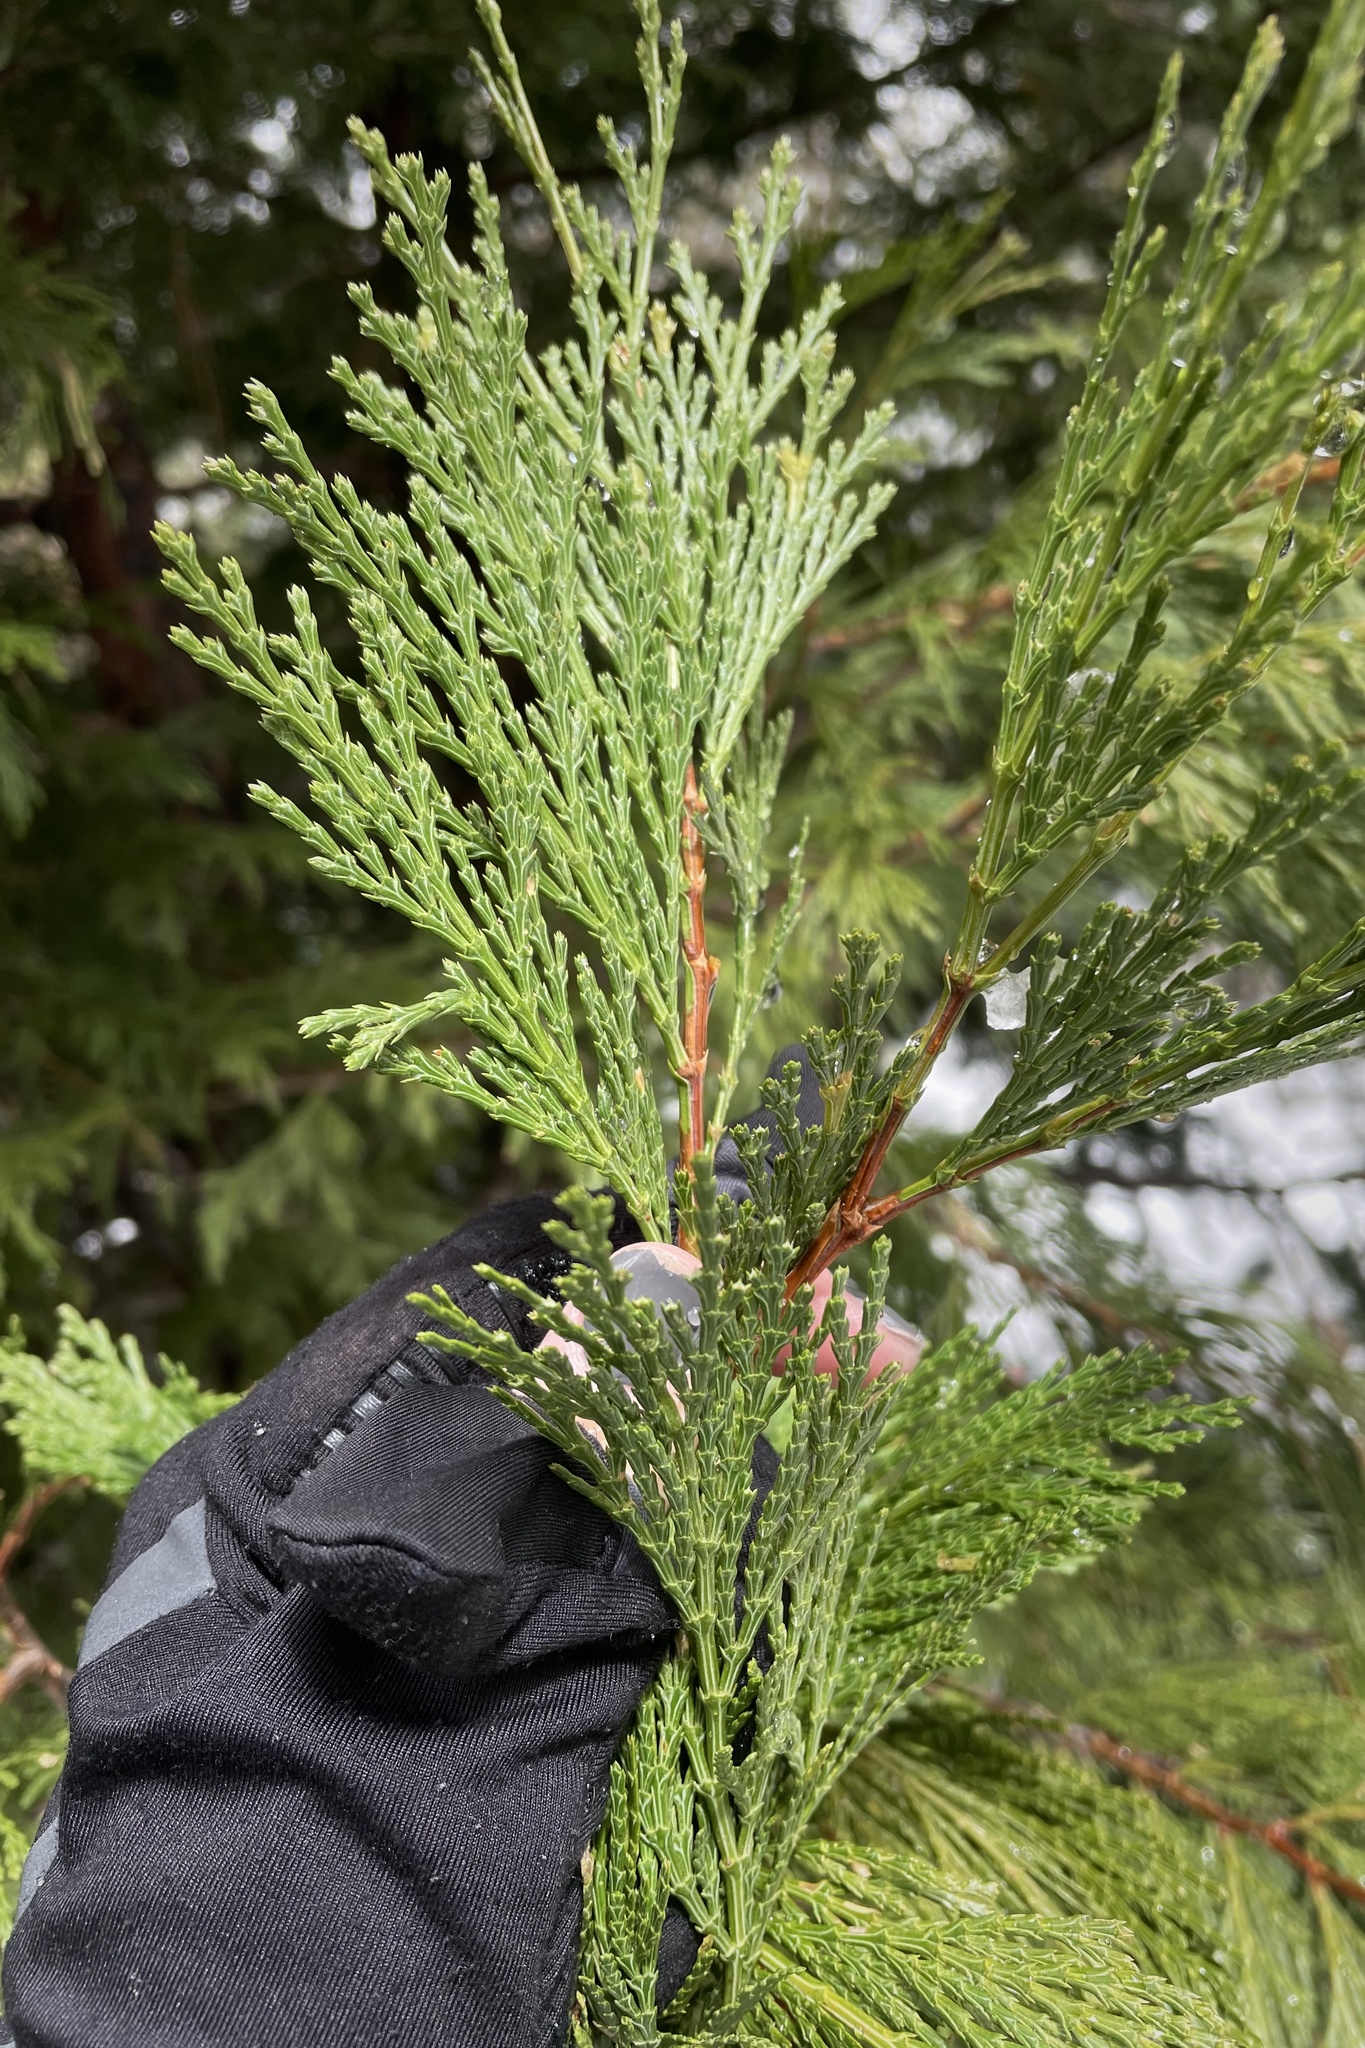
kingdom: Plantae
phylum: Tracheophyta
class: Pinopsida
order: Pinales
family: Cupressaceae
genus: Calocedrus
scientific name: Calocedrus decurrens
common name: Californian incense-cedar
